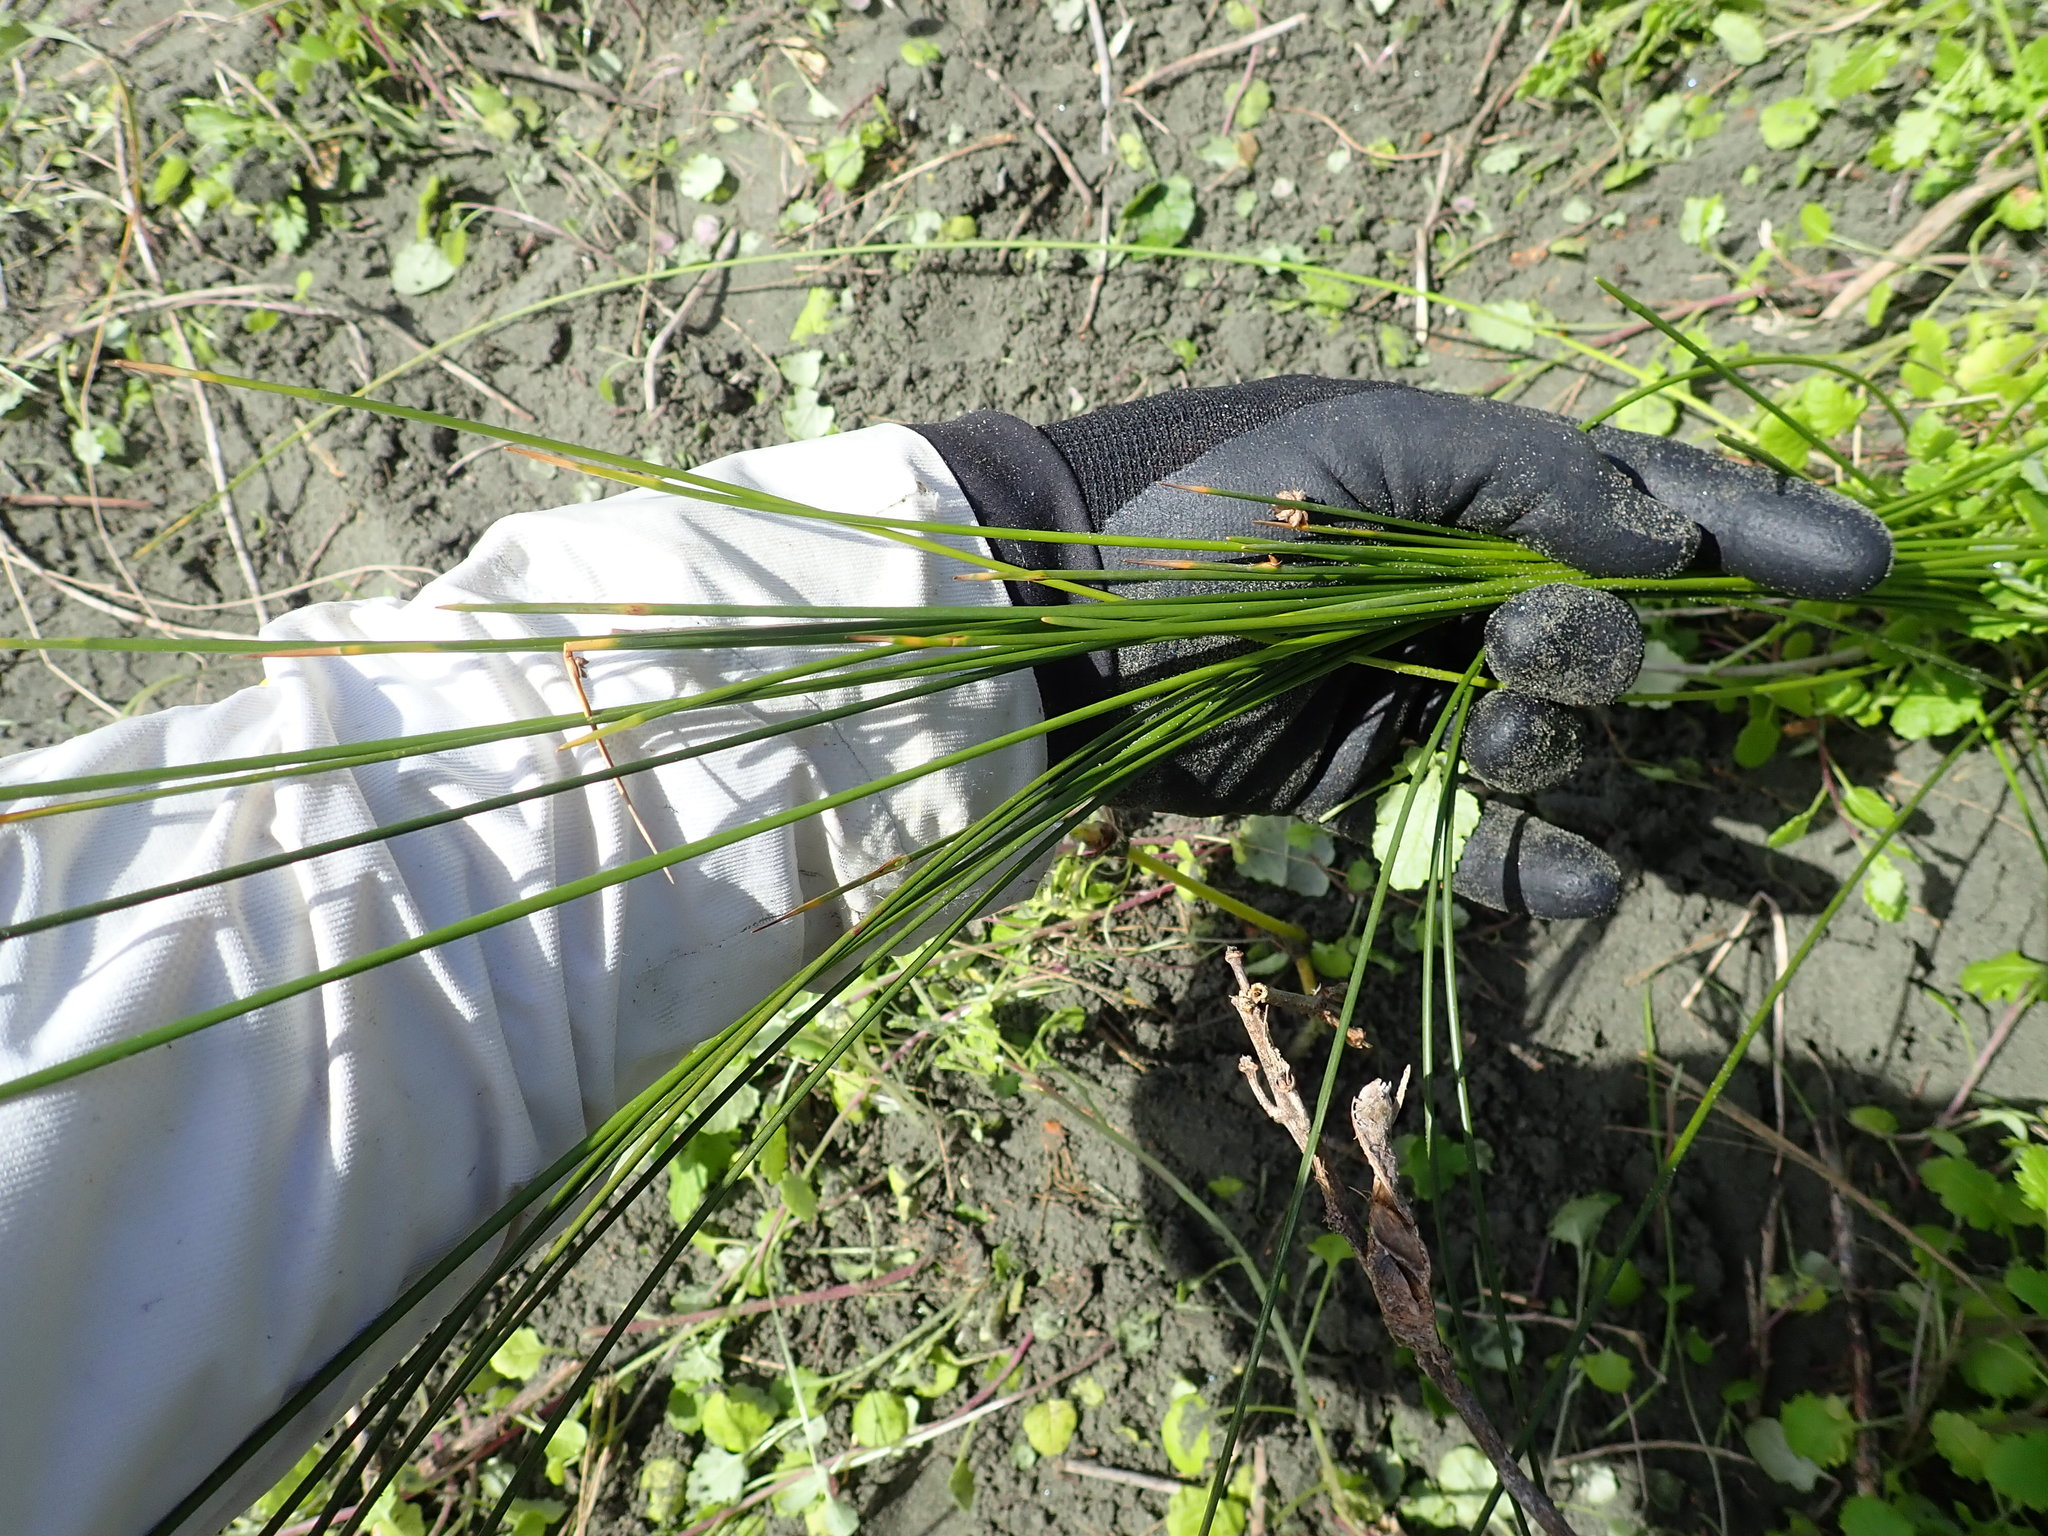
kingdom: Plantae
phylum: Tracheophyta
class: Liliopsida
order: Poales
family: Cyperaceae
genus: Ficinia
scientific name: Ficinia nodosa
